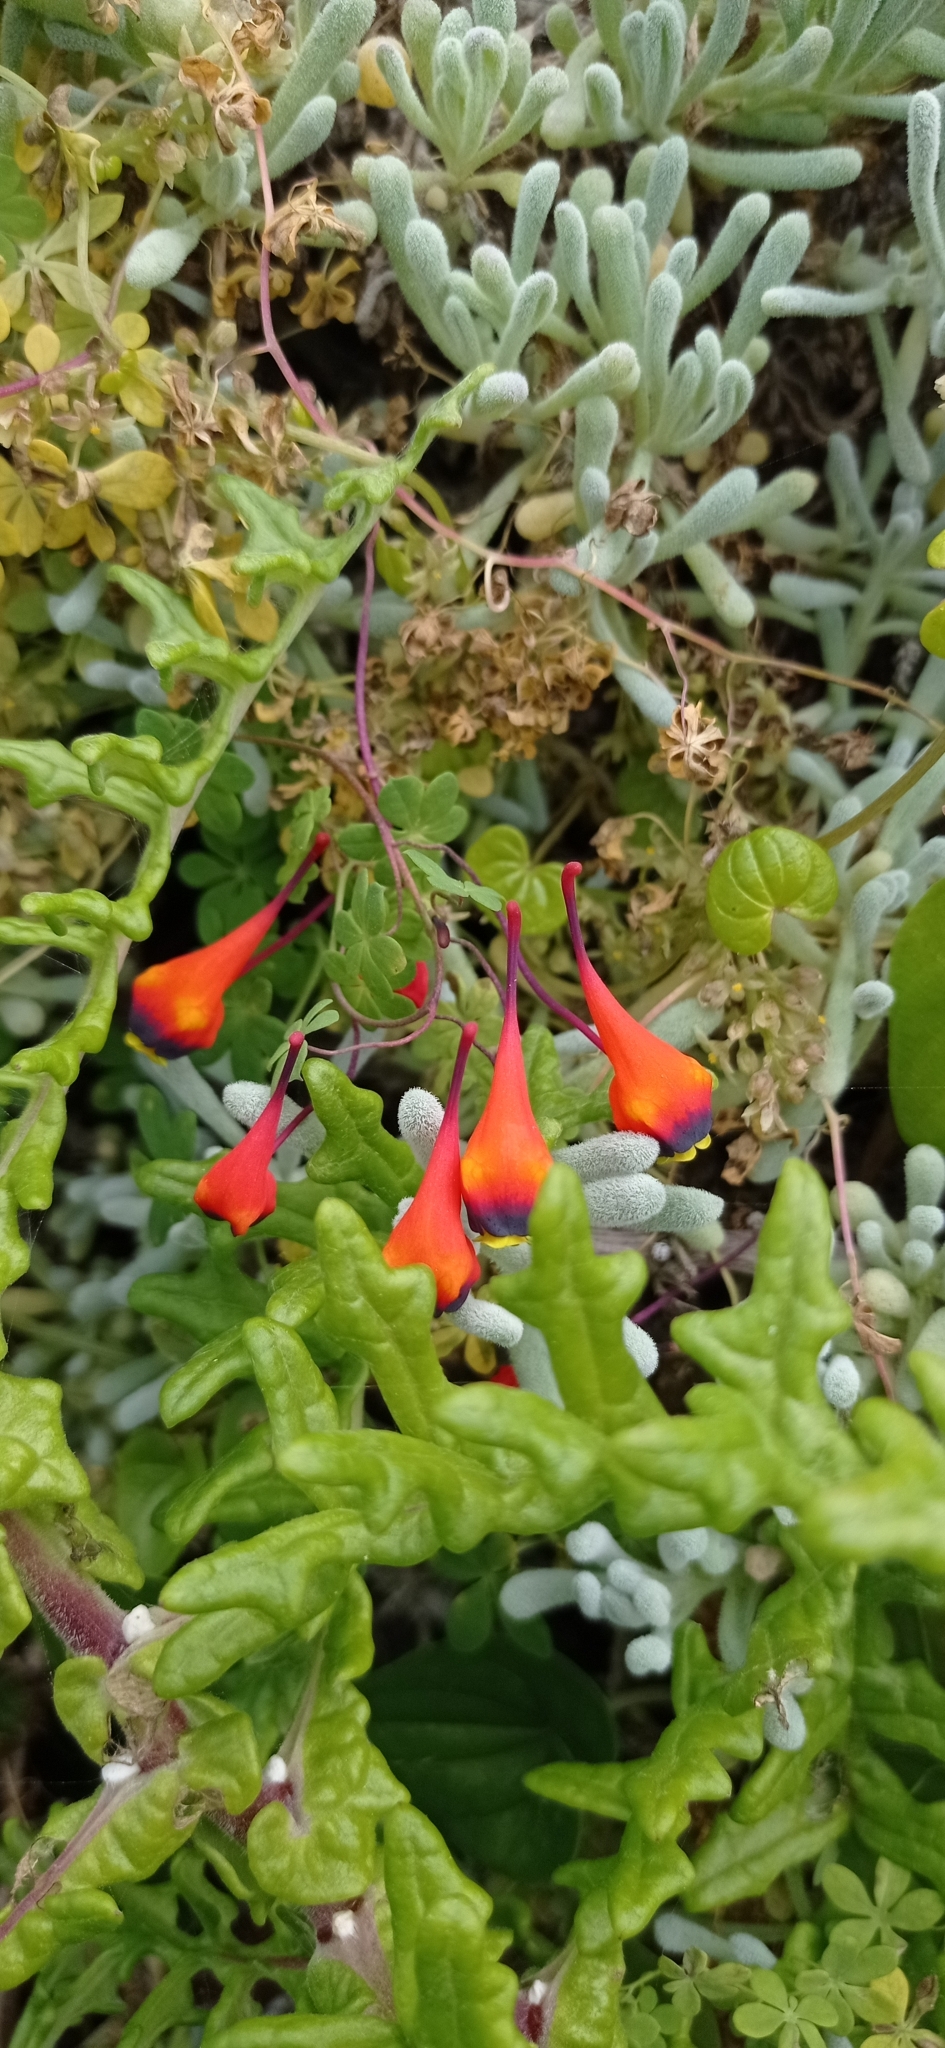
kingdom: Plantae
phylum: Tracheophyta
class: Magnoliopsida
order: Brassicales
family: Tropaeolaceae
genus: Tropaeolum
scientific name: Tropaeolum tricolor
